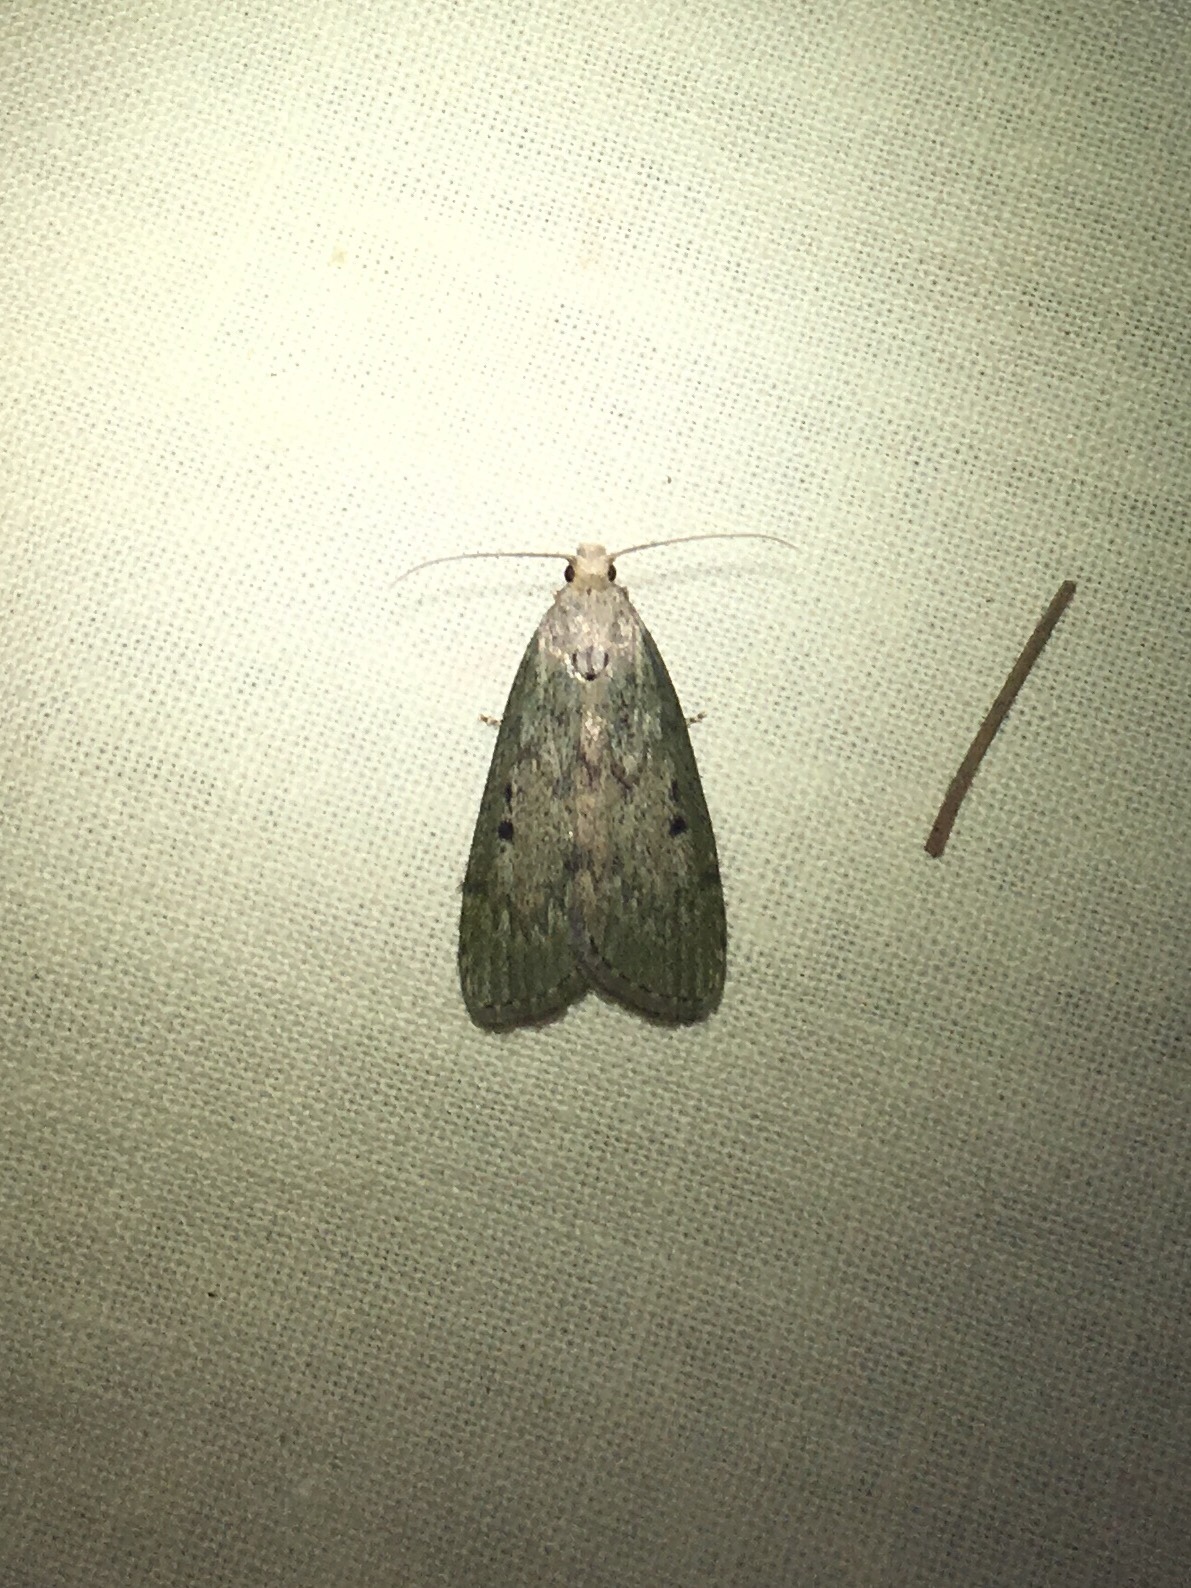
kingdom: Animalia
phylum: Arthropoda
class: Insecta
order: Lepidoptera
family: Pyralidae
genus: Aphomia
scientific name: Aphomia sociella
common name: Bee moth
